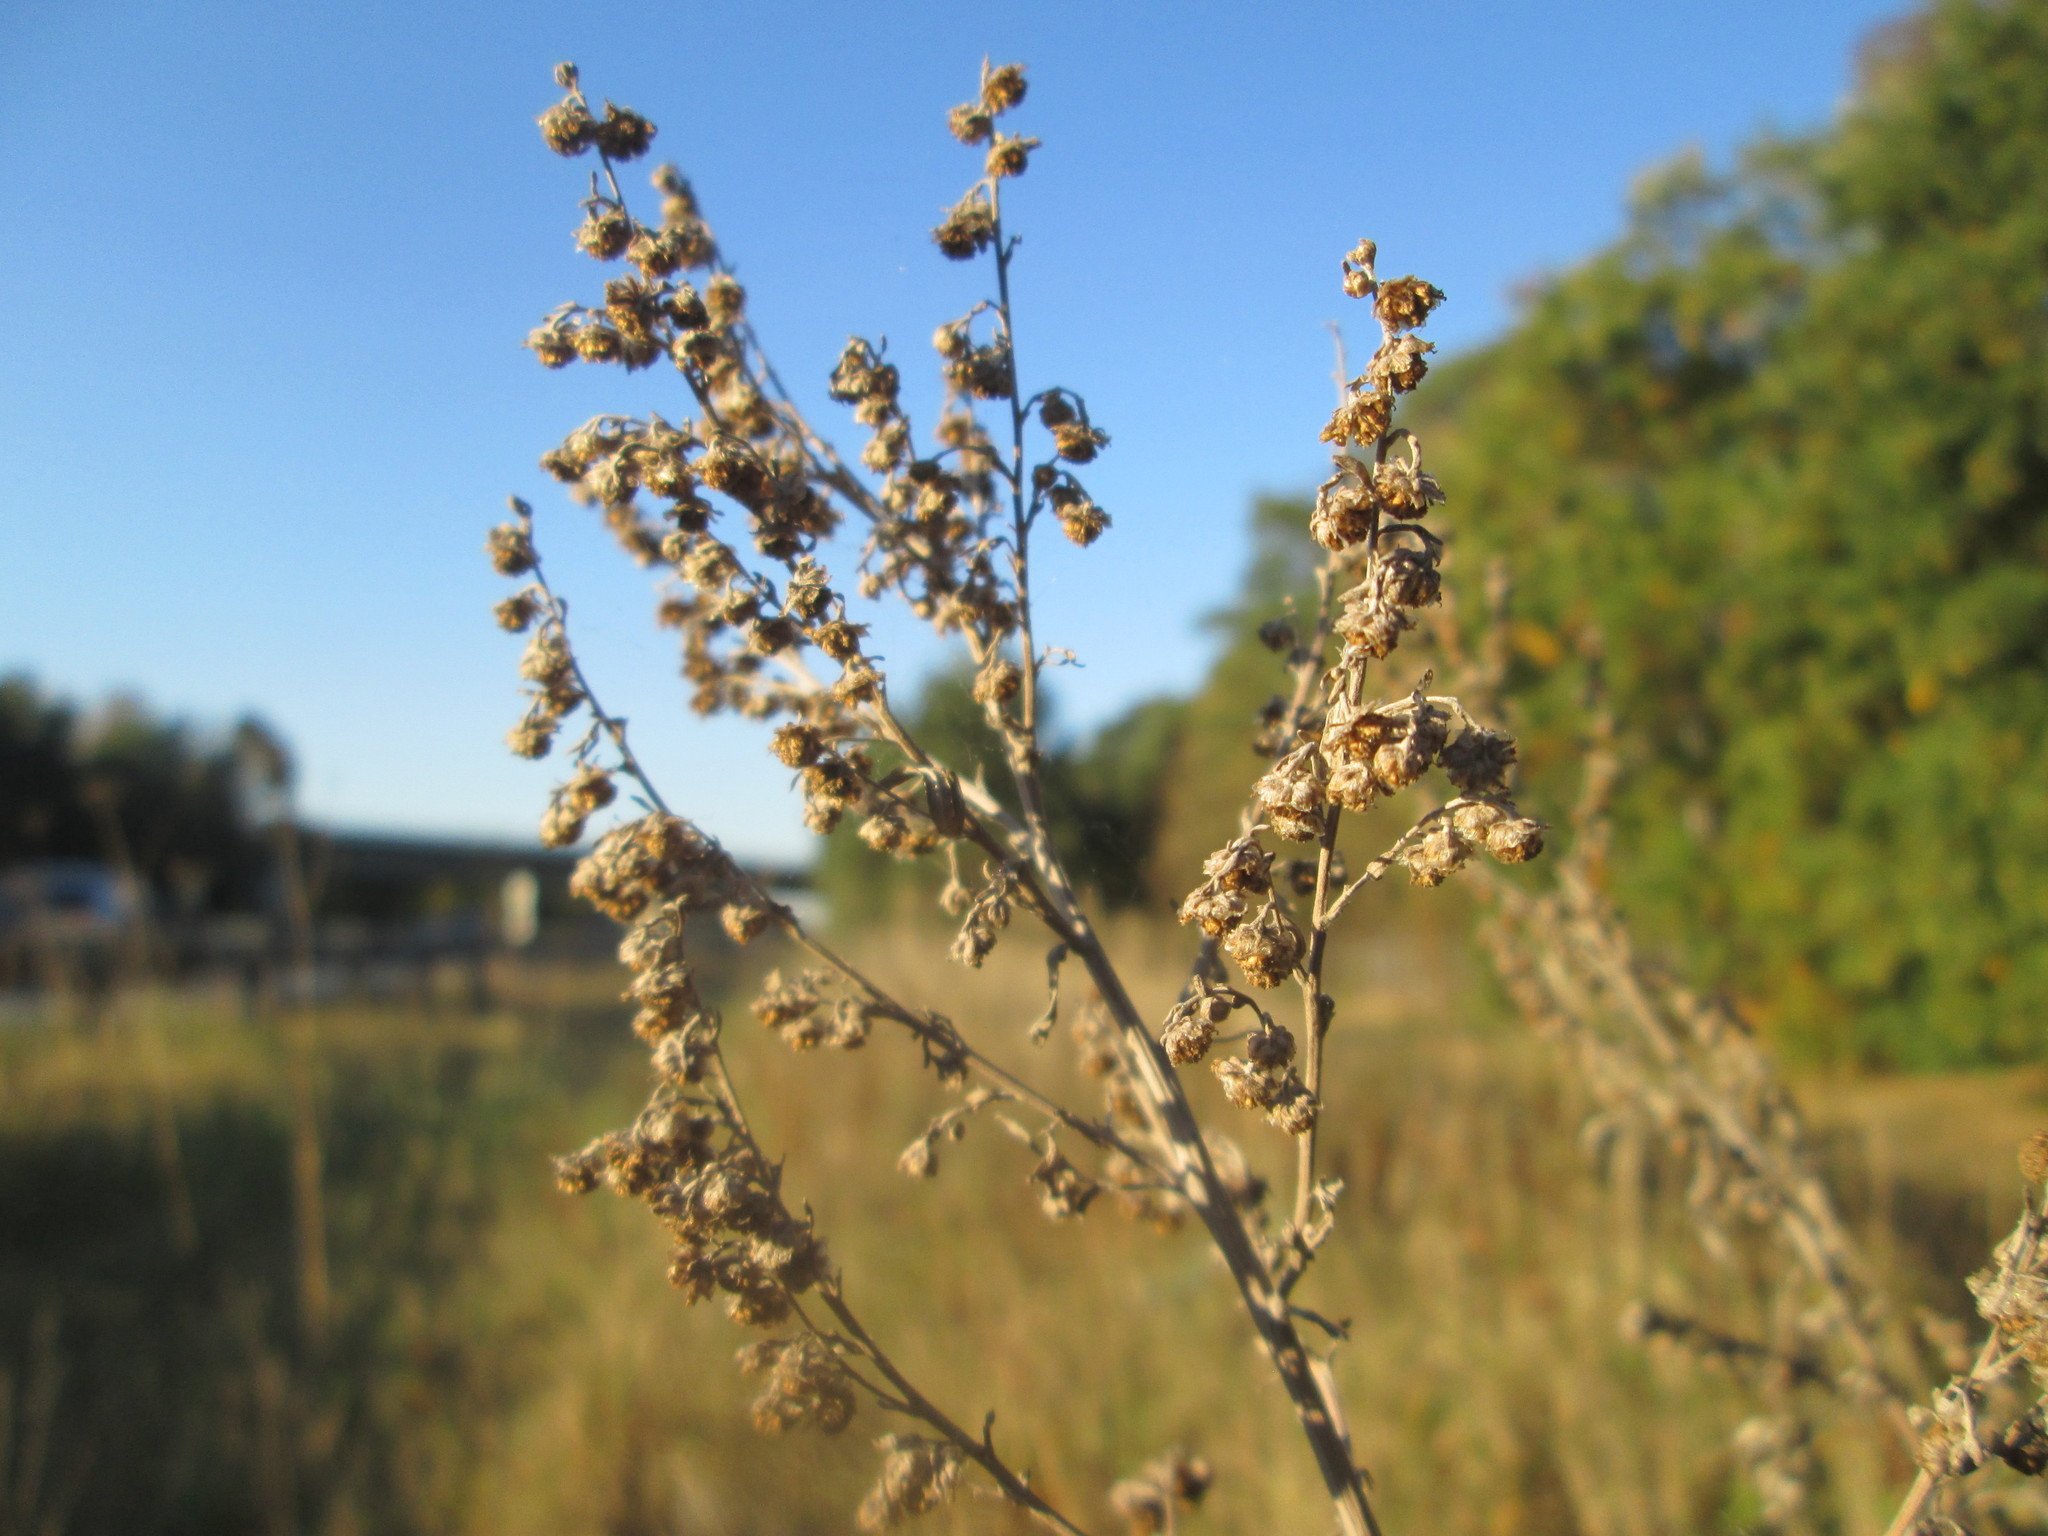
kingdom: Plantae
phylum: Tracheophyta
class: Magnoliopsida
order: Asterales
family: Asteraceae
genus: Artemisia
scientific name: Artemisia absinthium
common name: Wormwood
